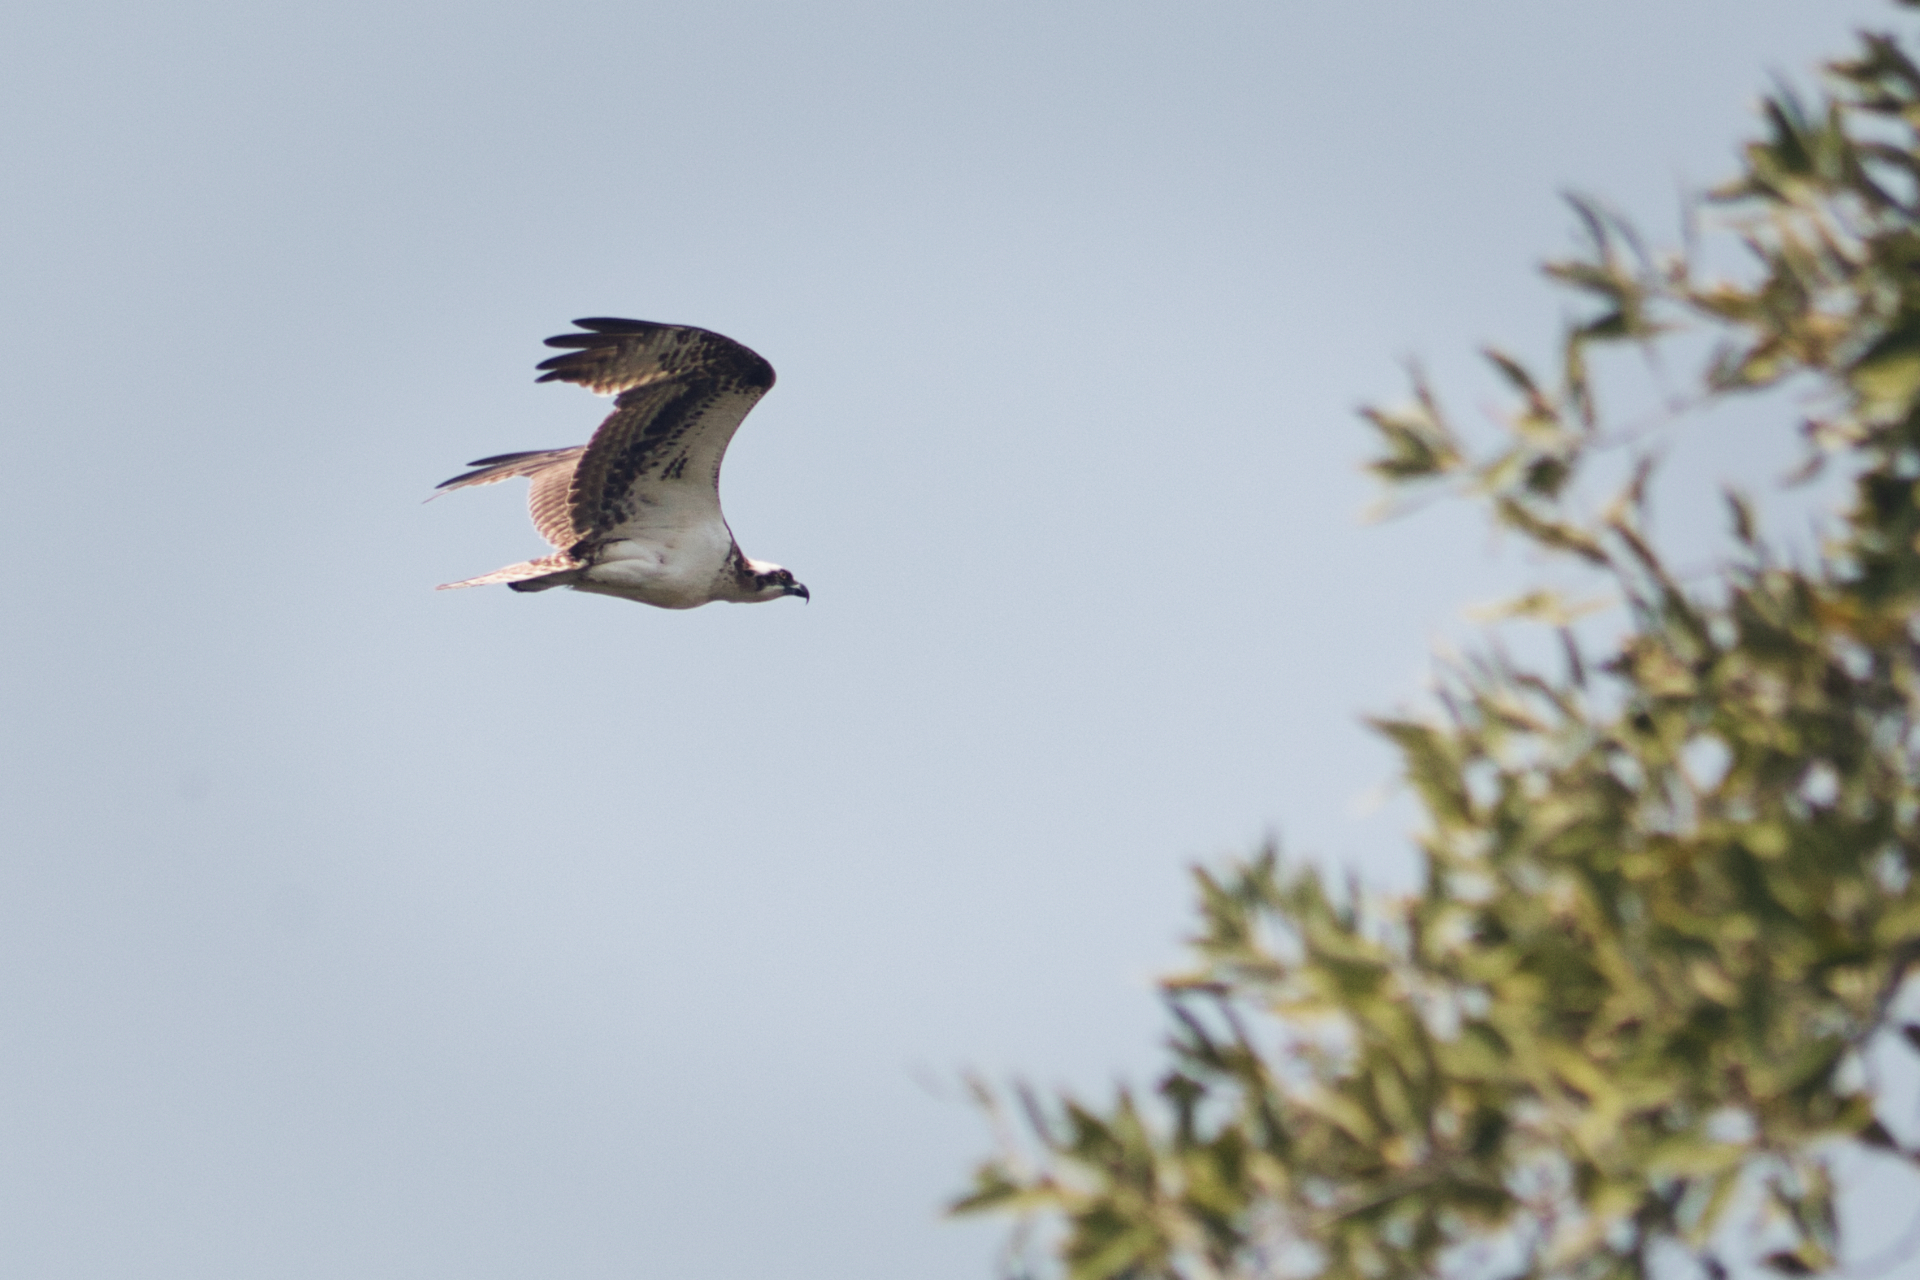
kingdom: Animalia
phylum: Chordata
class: Aves
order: Accipitriformes
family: Pandionidae
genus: Pandion
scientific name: Pandion haliaetus
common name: Osprey
